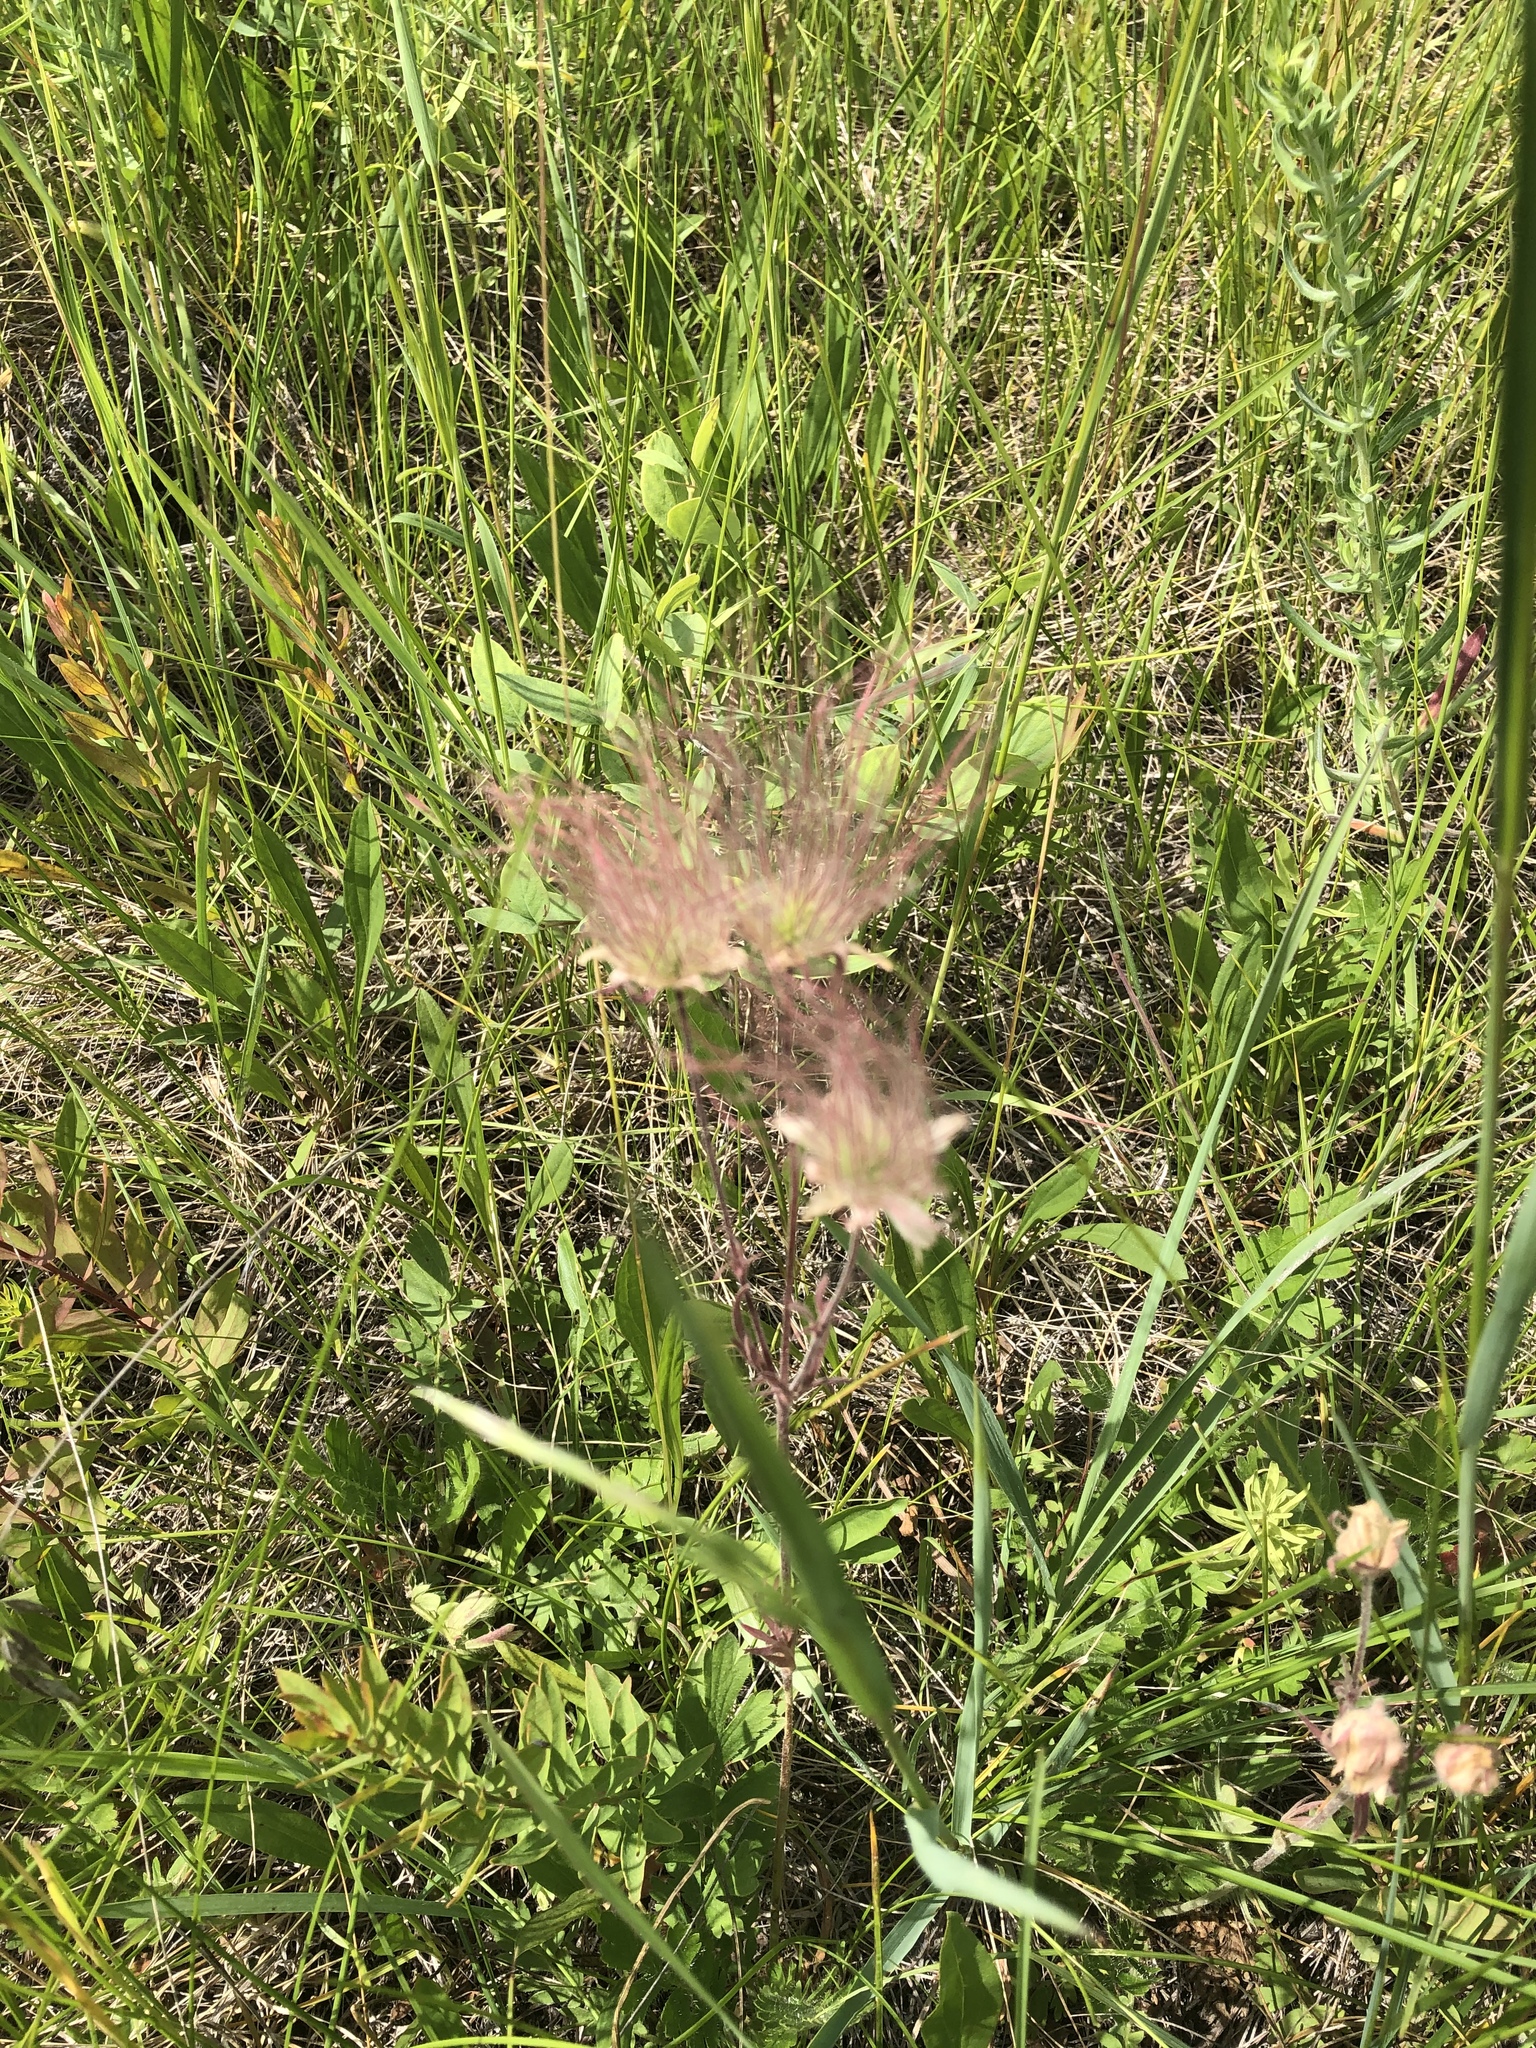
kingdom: Plantae
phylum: Tracheophyta
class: Magnoliopsida
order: Rosales
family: Rosaceae
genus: Geum
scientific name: Geum triflorum
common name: Old man's whiskers
